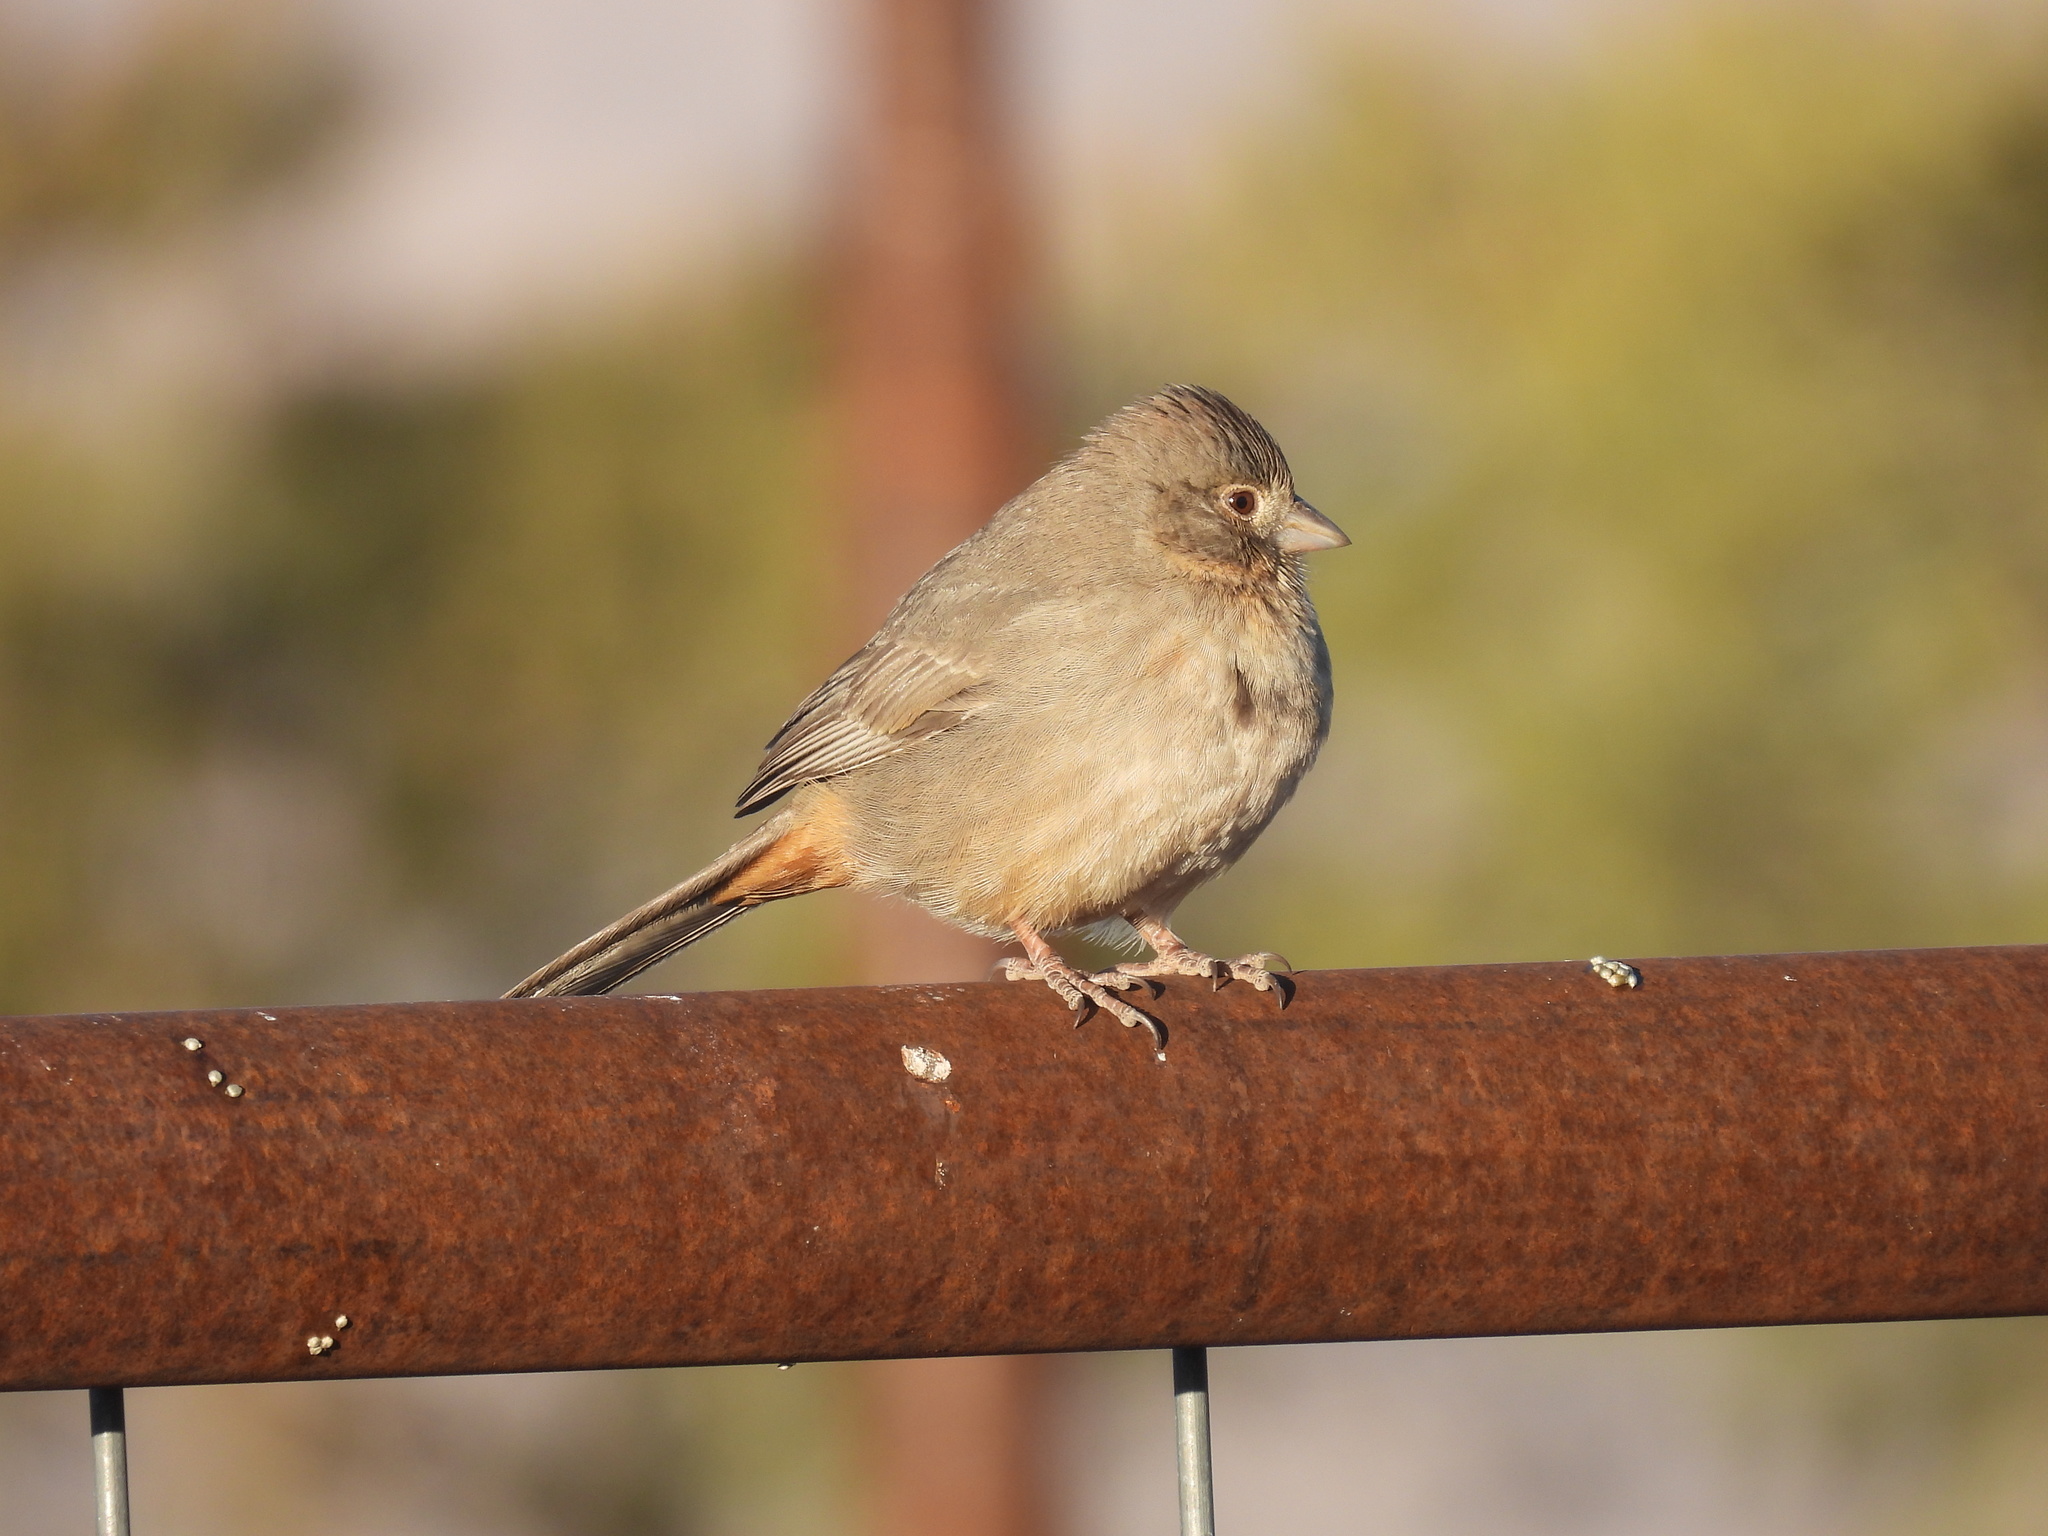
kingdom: Animalia
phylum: Chordata
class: Aves
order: Passeriformes
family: Passerellidae
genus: Melozone
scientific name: Melozone fusca
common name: Canyon towhee
